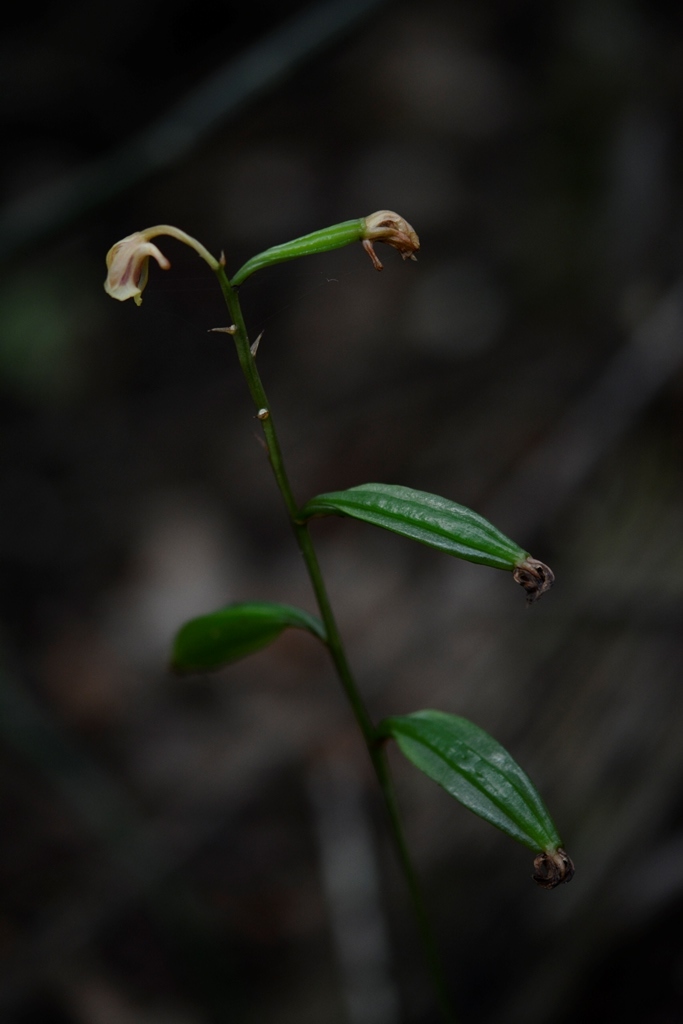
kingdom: Plantae
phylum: Tracheophyta
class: Liliopsida
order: Asparagales
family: Orchidaceae
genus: Eulophia
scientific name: Eulophia maculata
